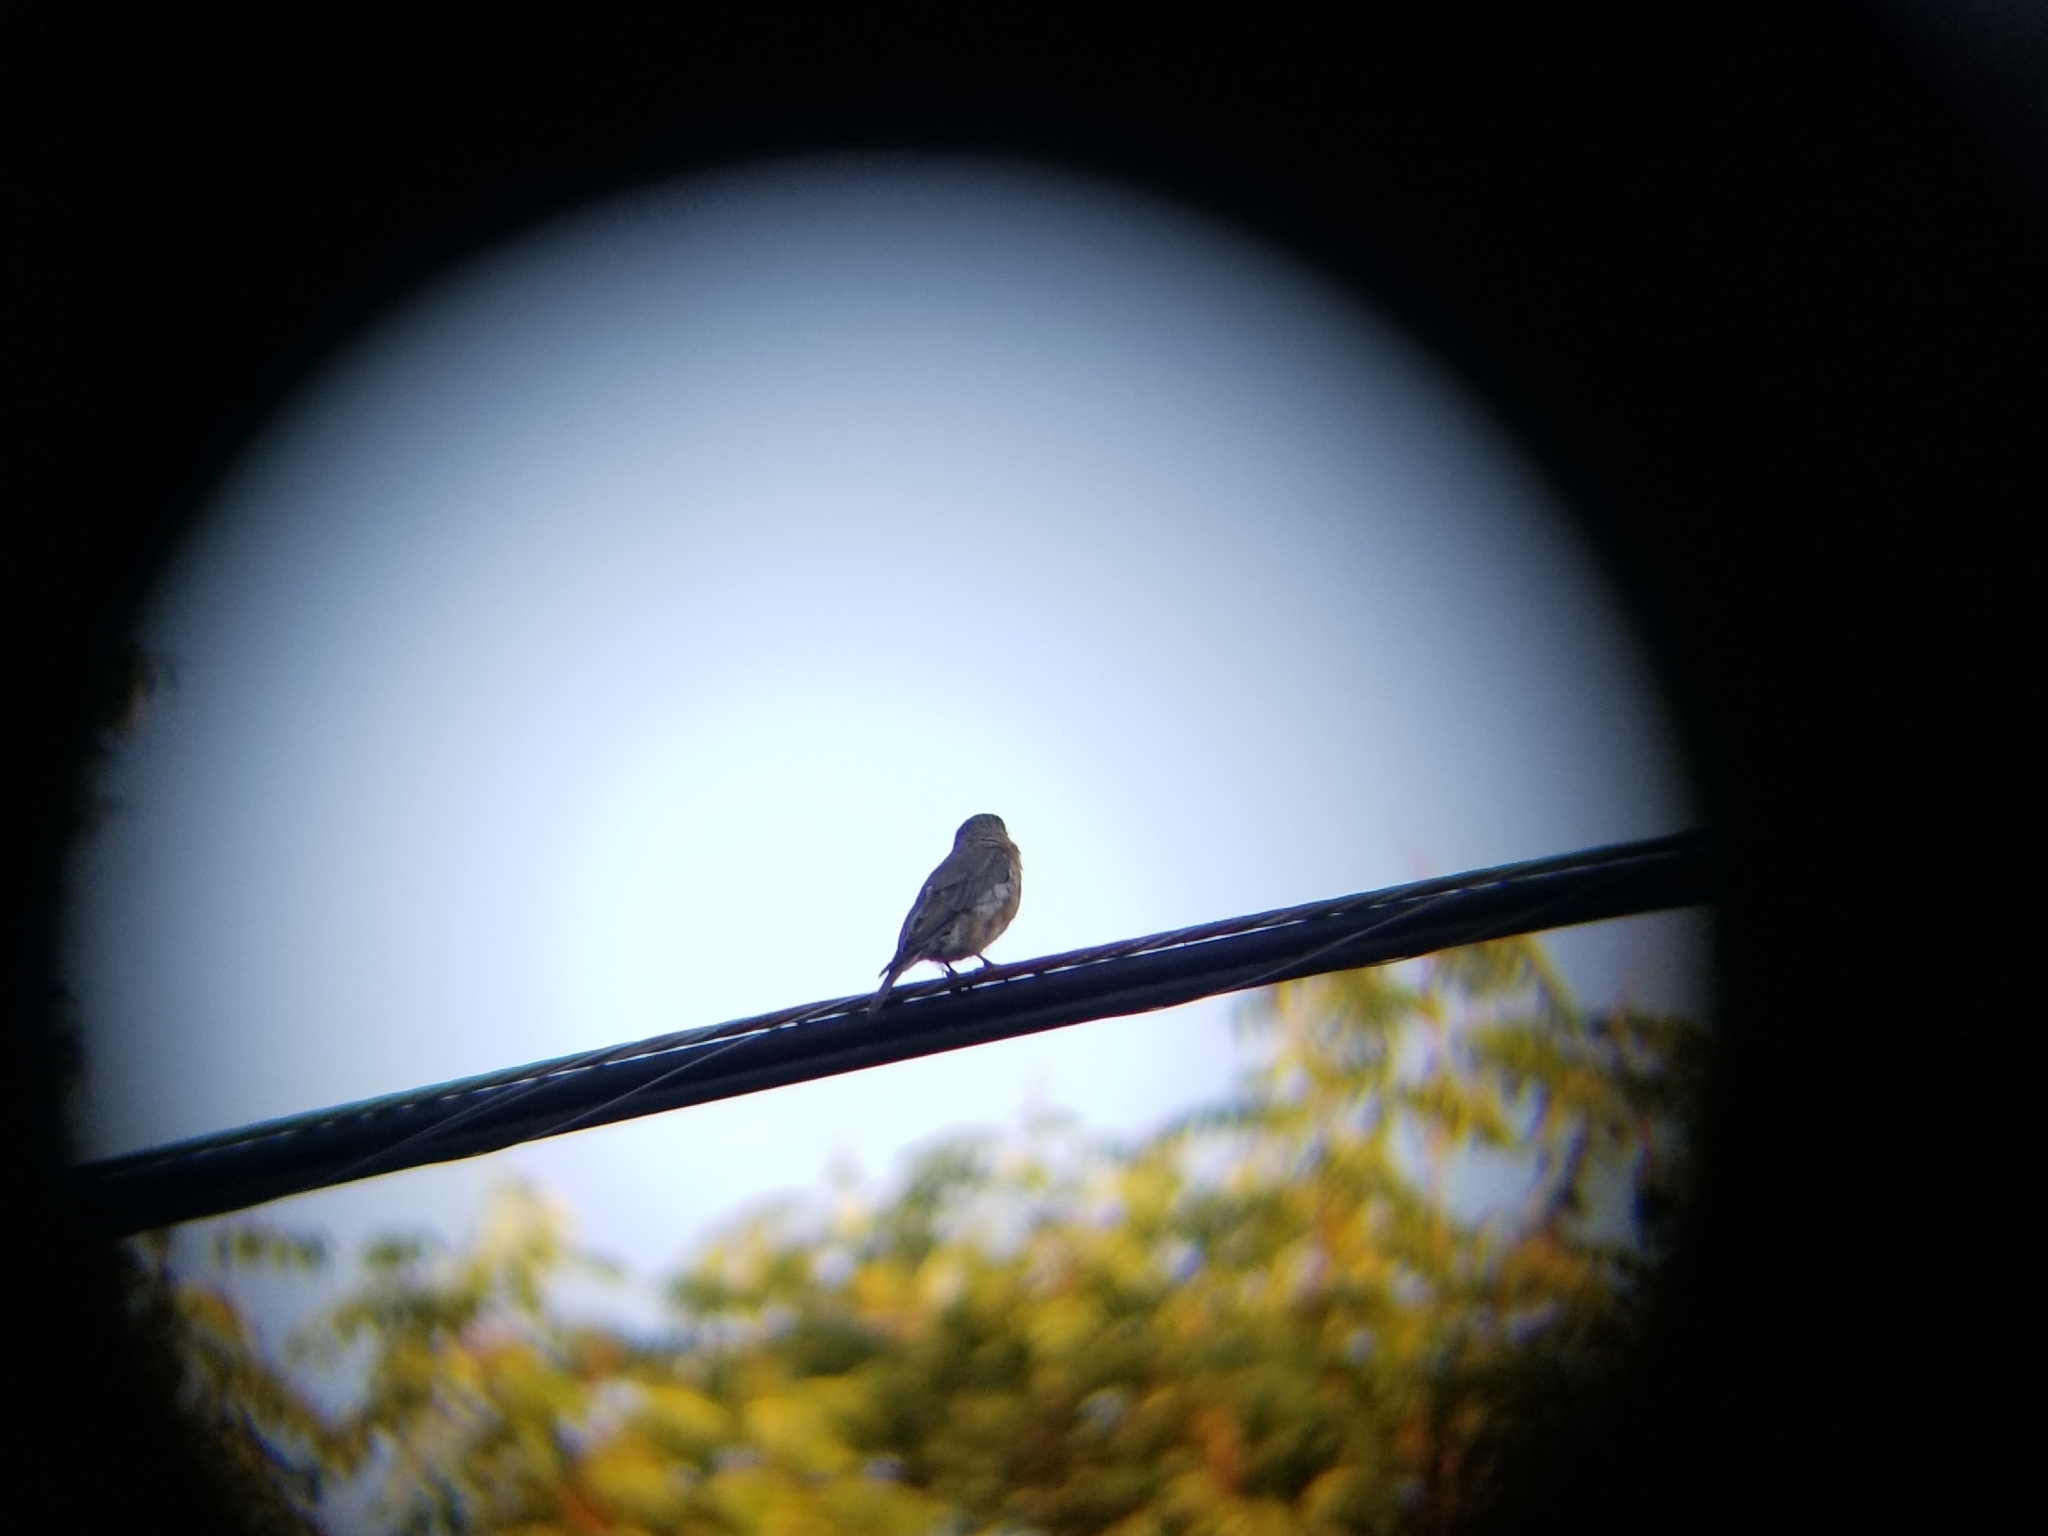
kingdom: Animalia
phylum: Chordata
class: Aves
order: Passeriformes
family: Turdidae
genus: Sialia
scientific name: Sialia sialis
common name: Eastern bluebird
